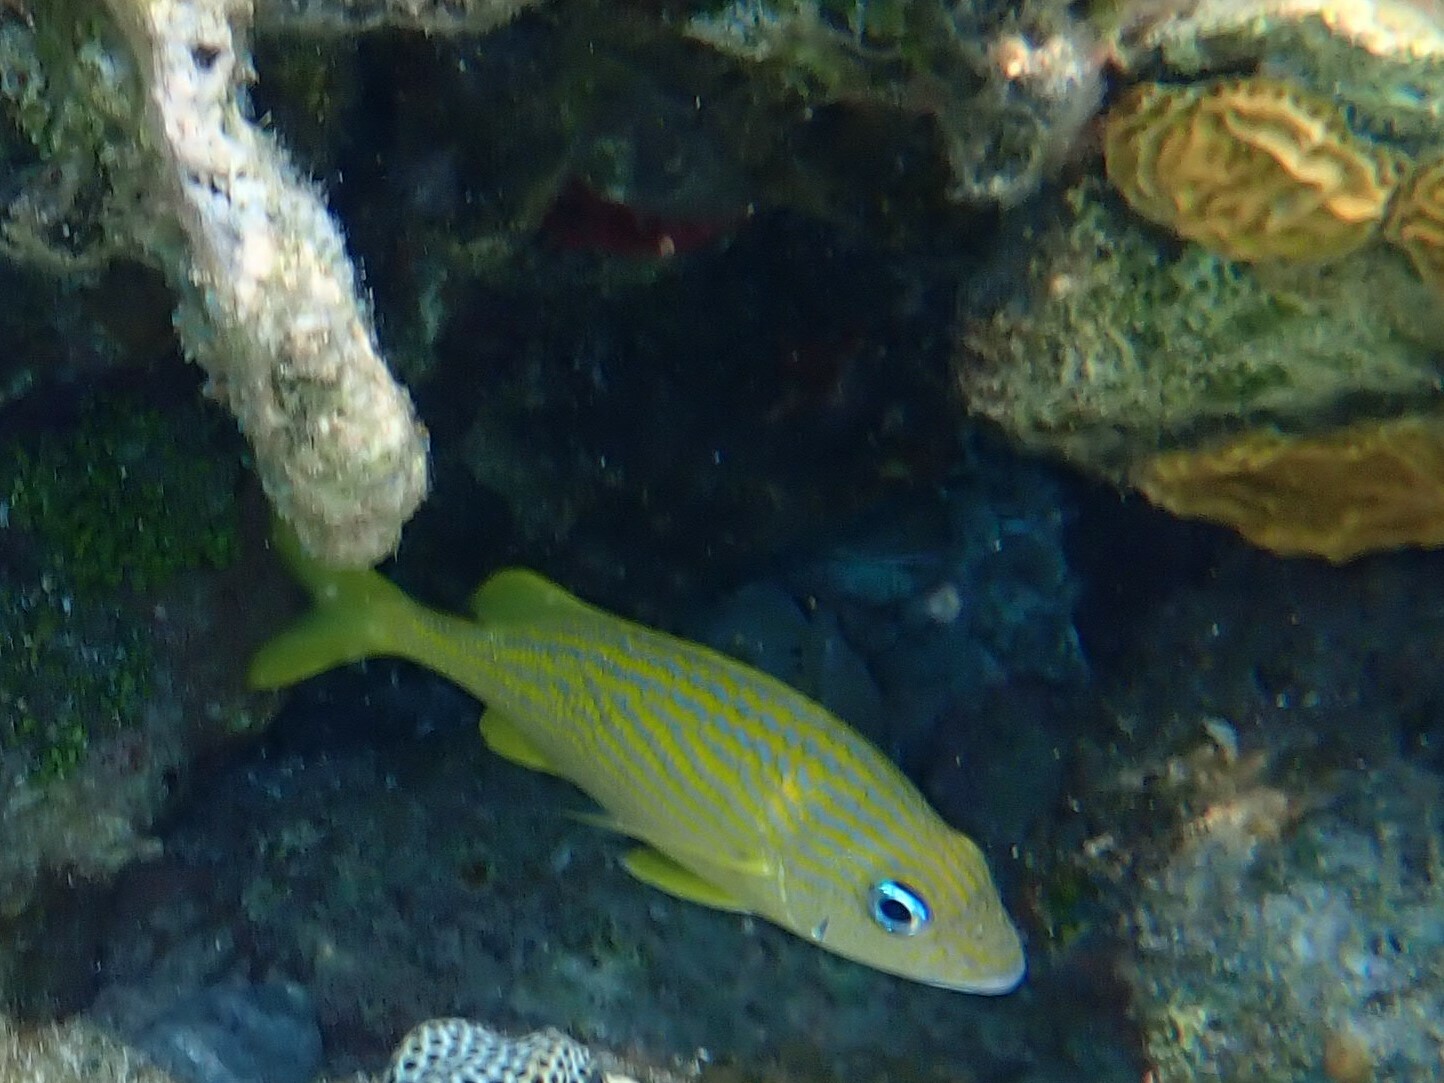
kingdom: Animalia
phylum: Chordata
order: Perciformes
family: Haemulidae
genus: Haemulon
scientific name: Haemulon flavolineatum
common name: French grunt
